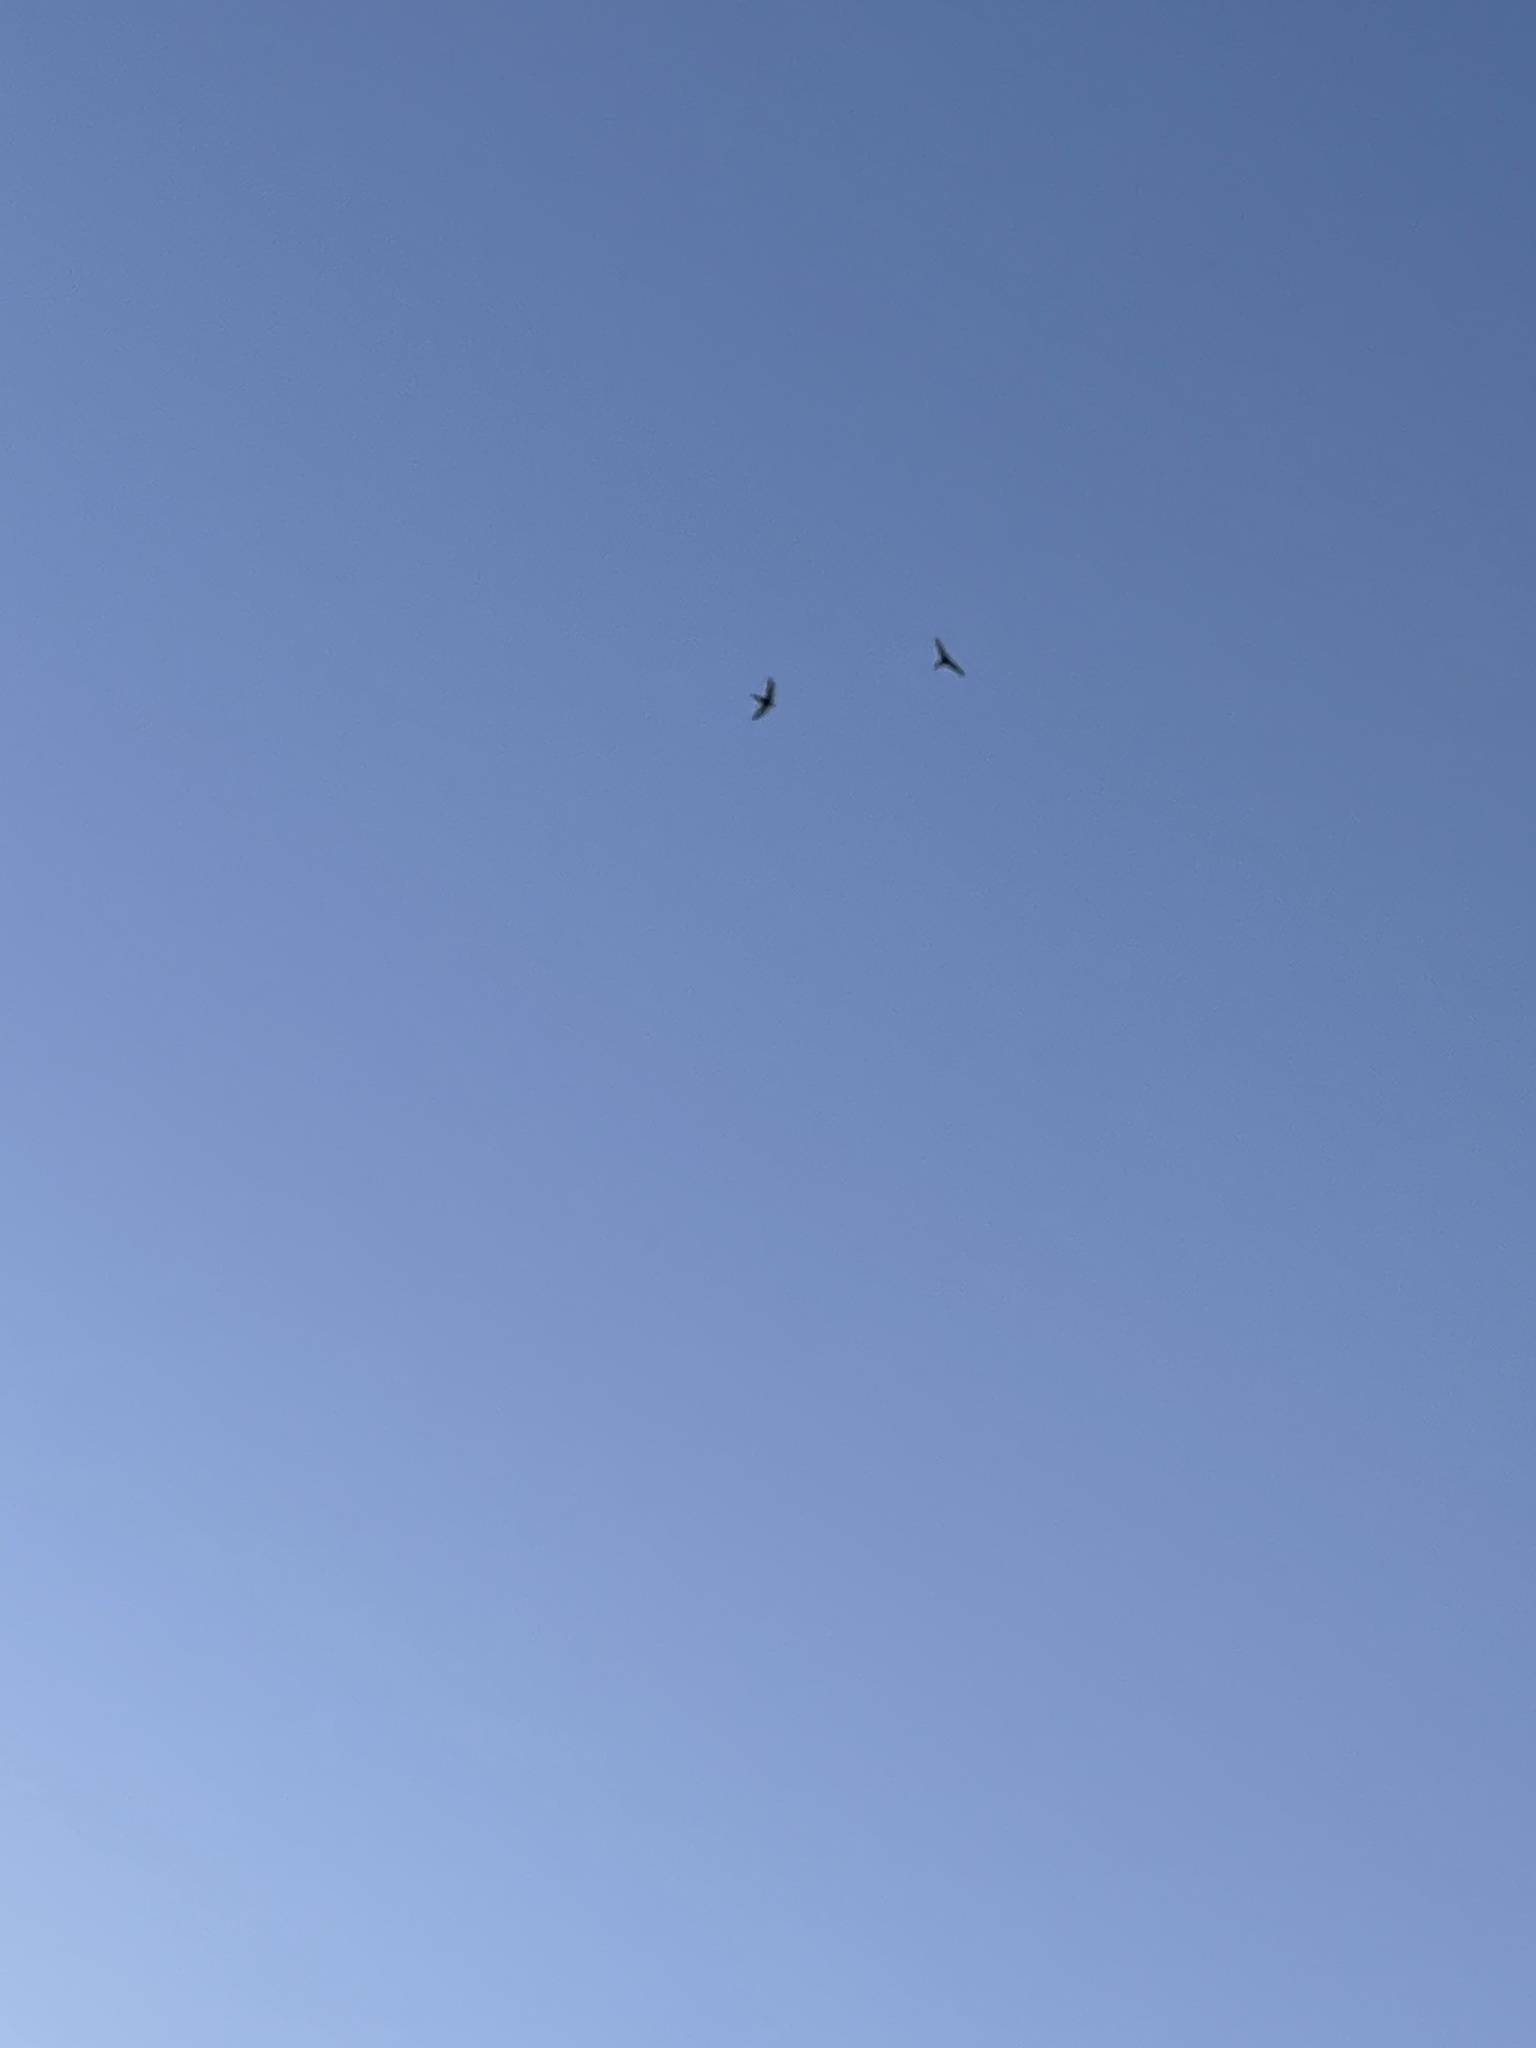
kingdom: Animalia
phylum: Chordata
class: Aves
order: Apodiformes
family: Apodidae
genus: Apus
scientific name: Apus apus
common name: Common swift
